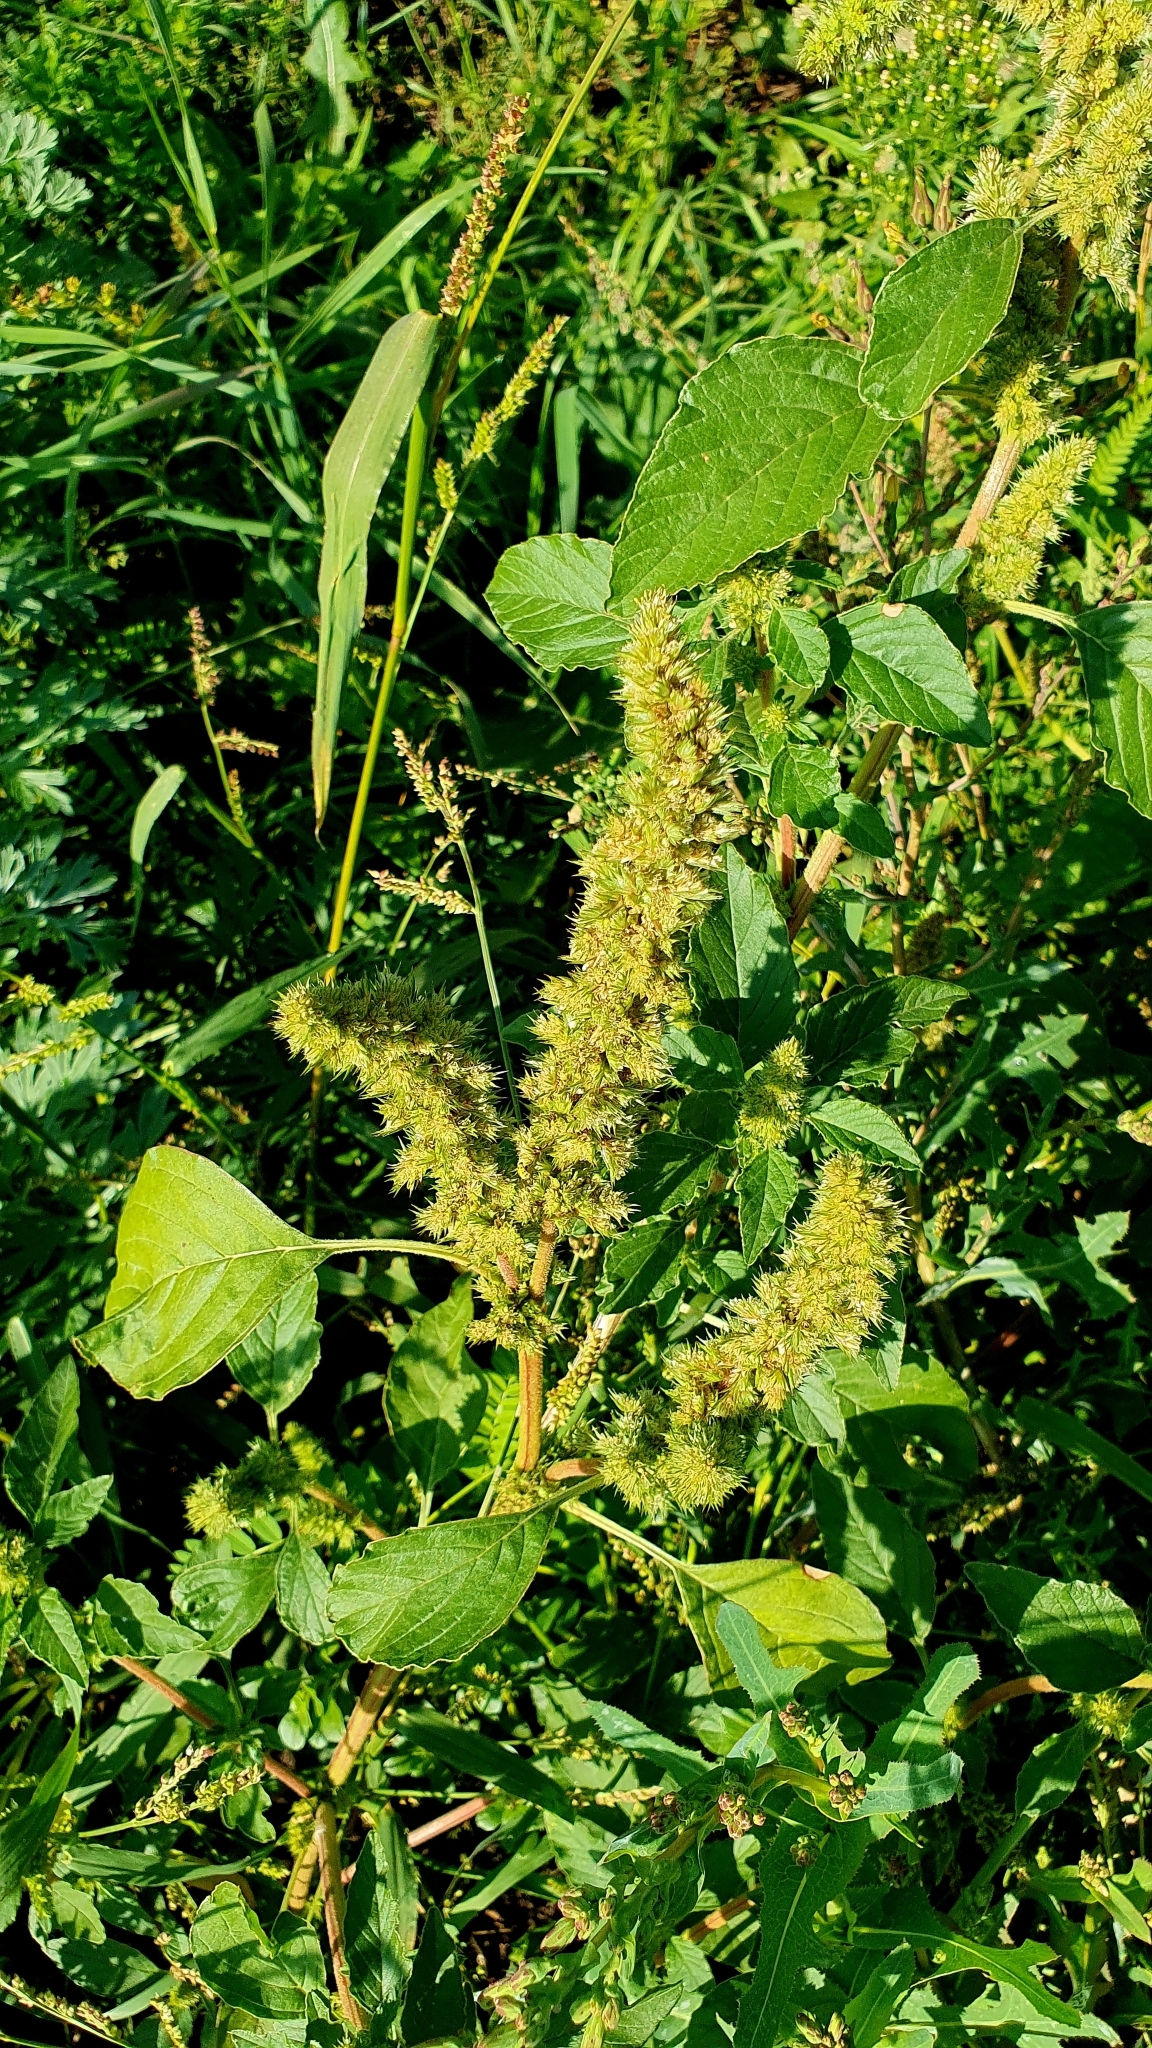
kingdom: Plantae
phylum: Tracheophyta
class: Magnoliopsida
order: Caryophyllales
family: Amaranthaceae
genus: Amaranthus
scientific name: Amaranthus retroflexus
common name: Redroot amaranth
